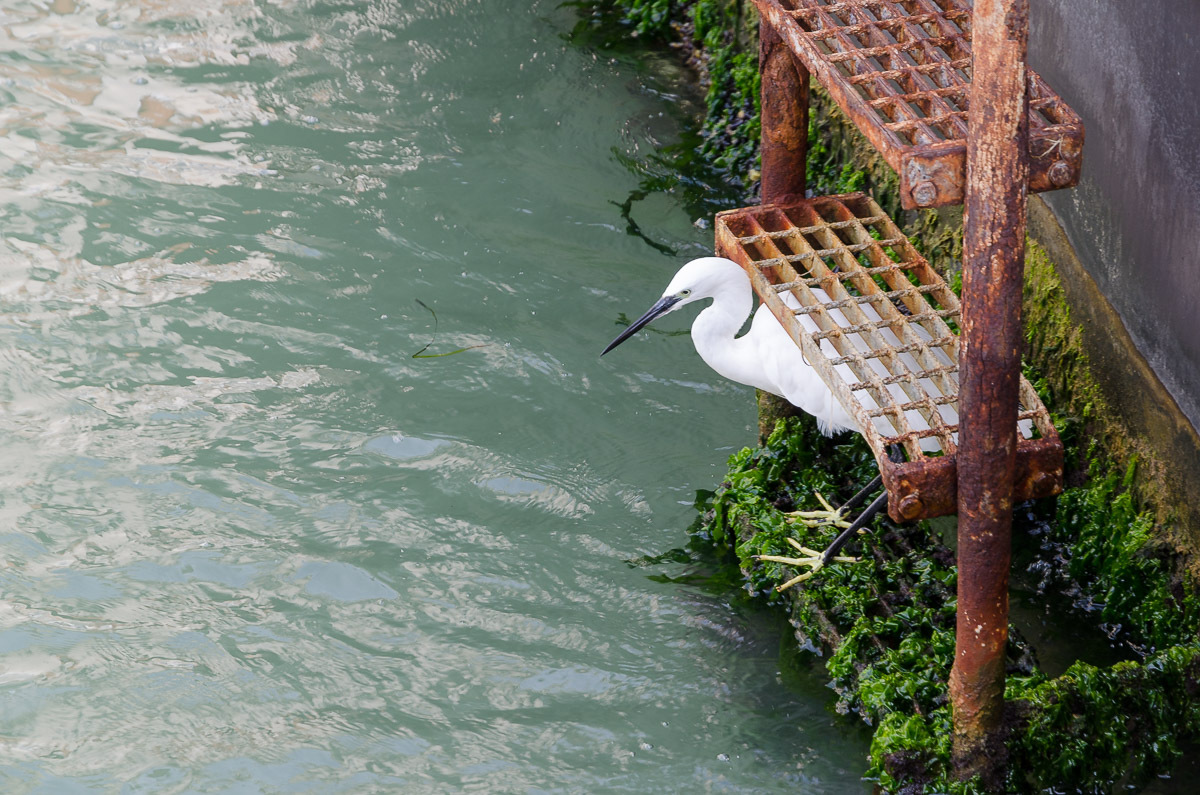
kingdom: Animalia
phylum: Chordata
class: Aves
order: Pelecaniformes
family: Ardeidae
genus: Egretta
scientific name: Egretta garzetta
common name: Little egret
